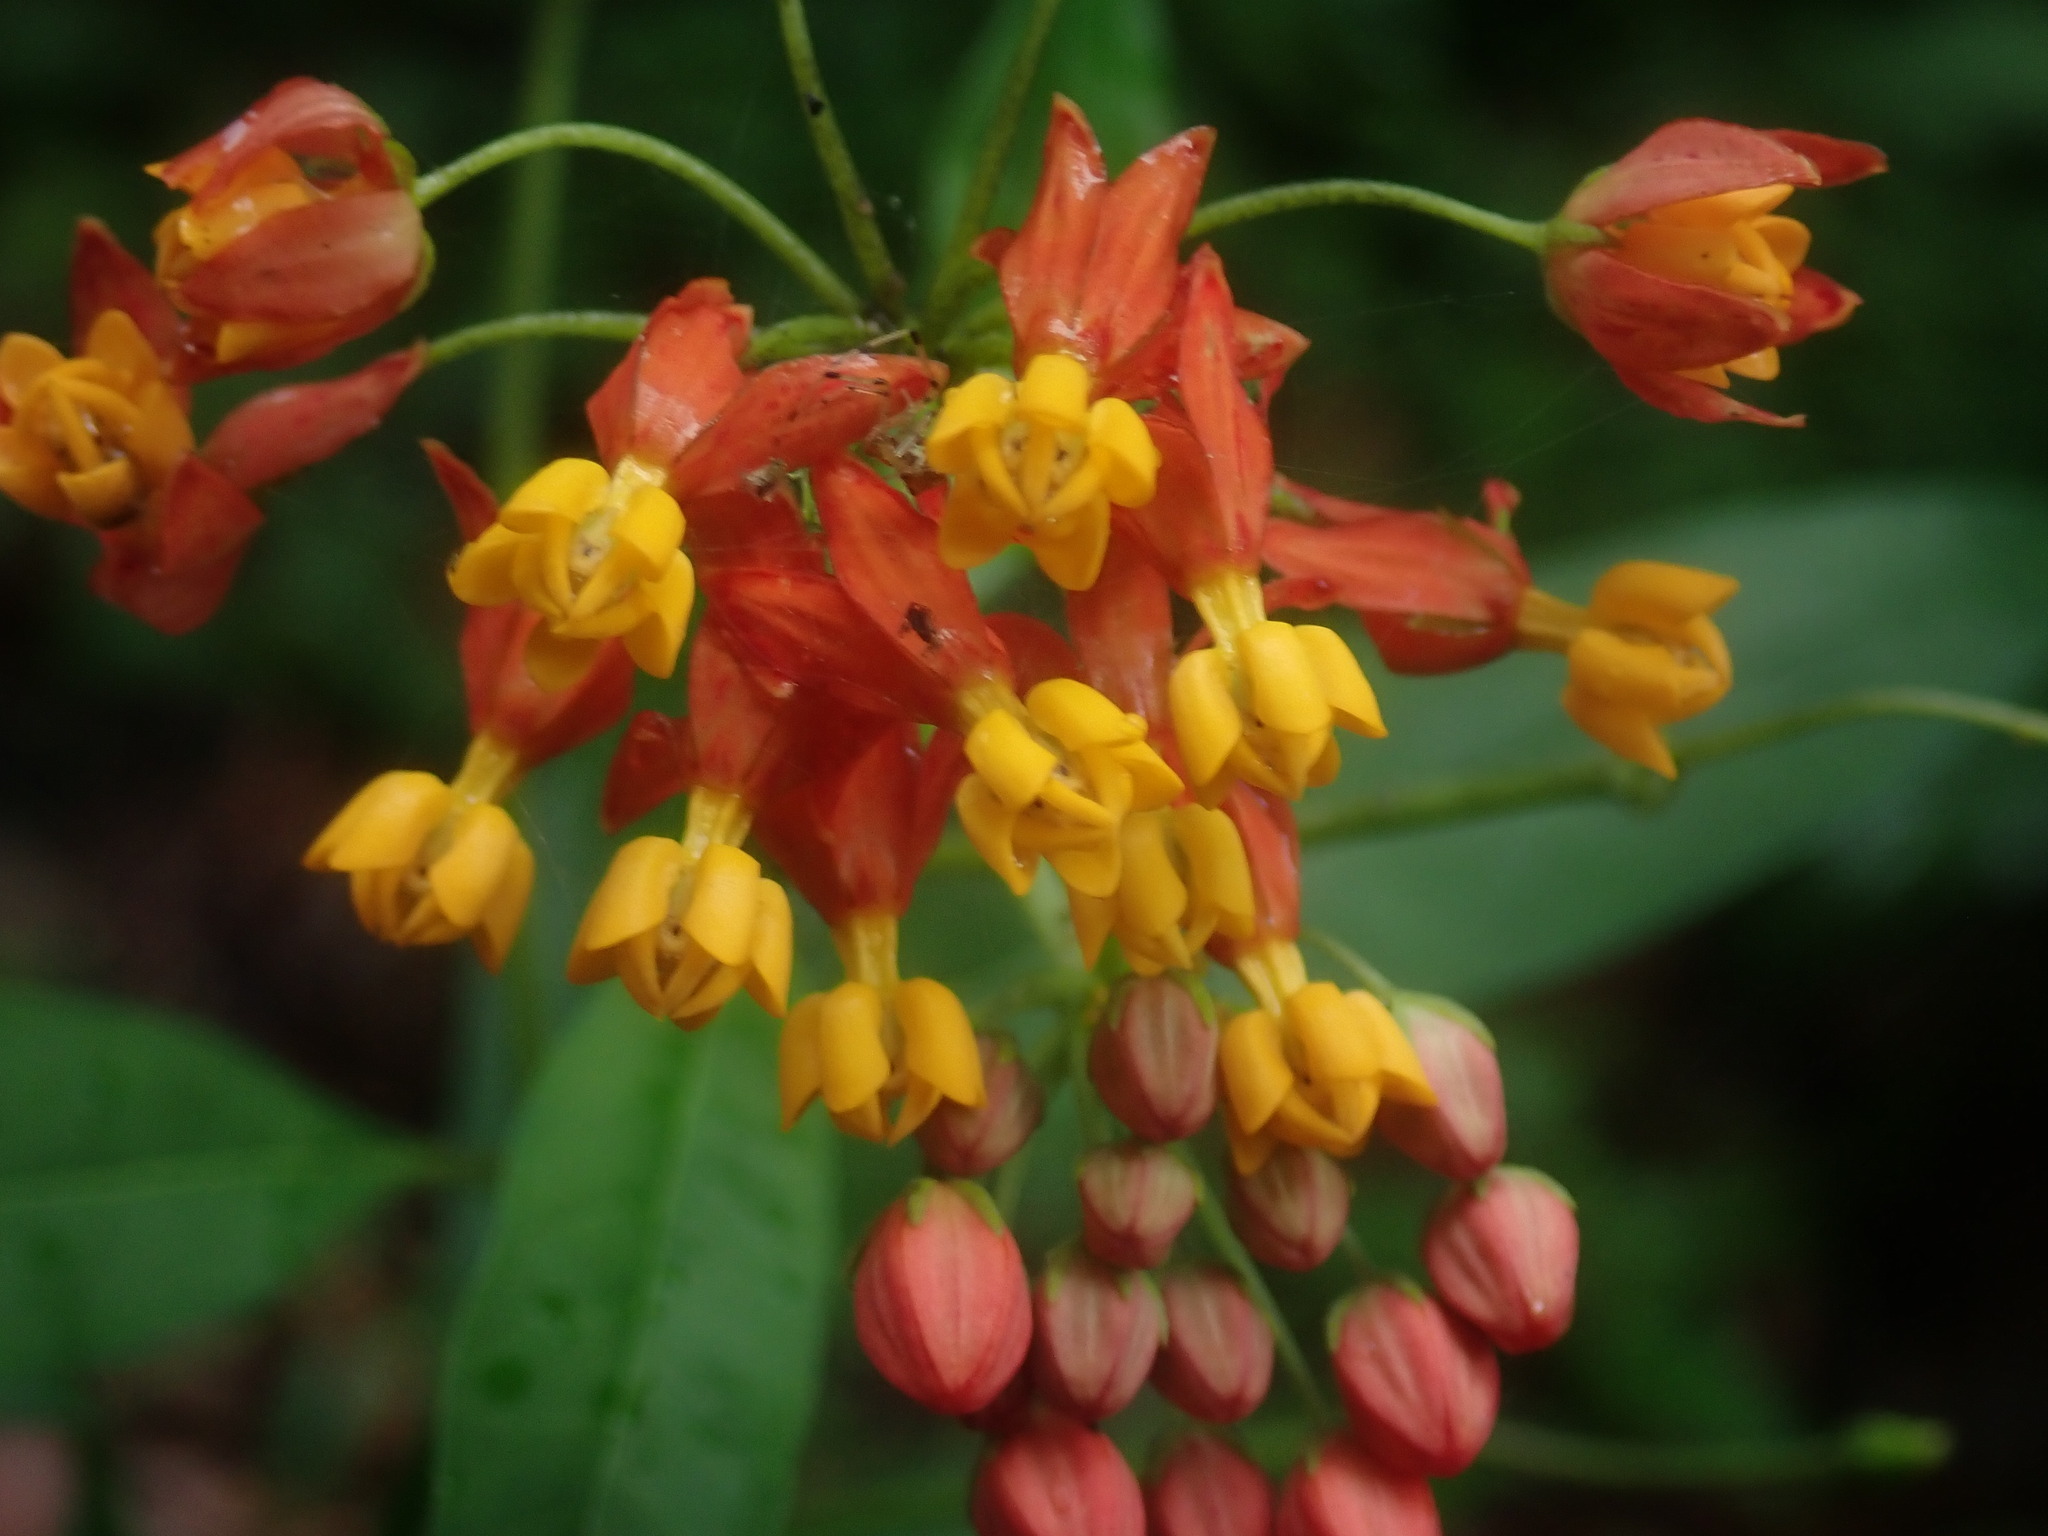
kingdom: Plantae
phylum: Tracheophyta
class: Magnoliopsida
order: Gentianales
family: Apocynaceae
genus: Asclepias
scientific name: Asclepias curassavica
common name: Bloodflower
